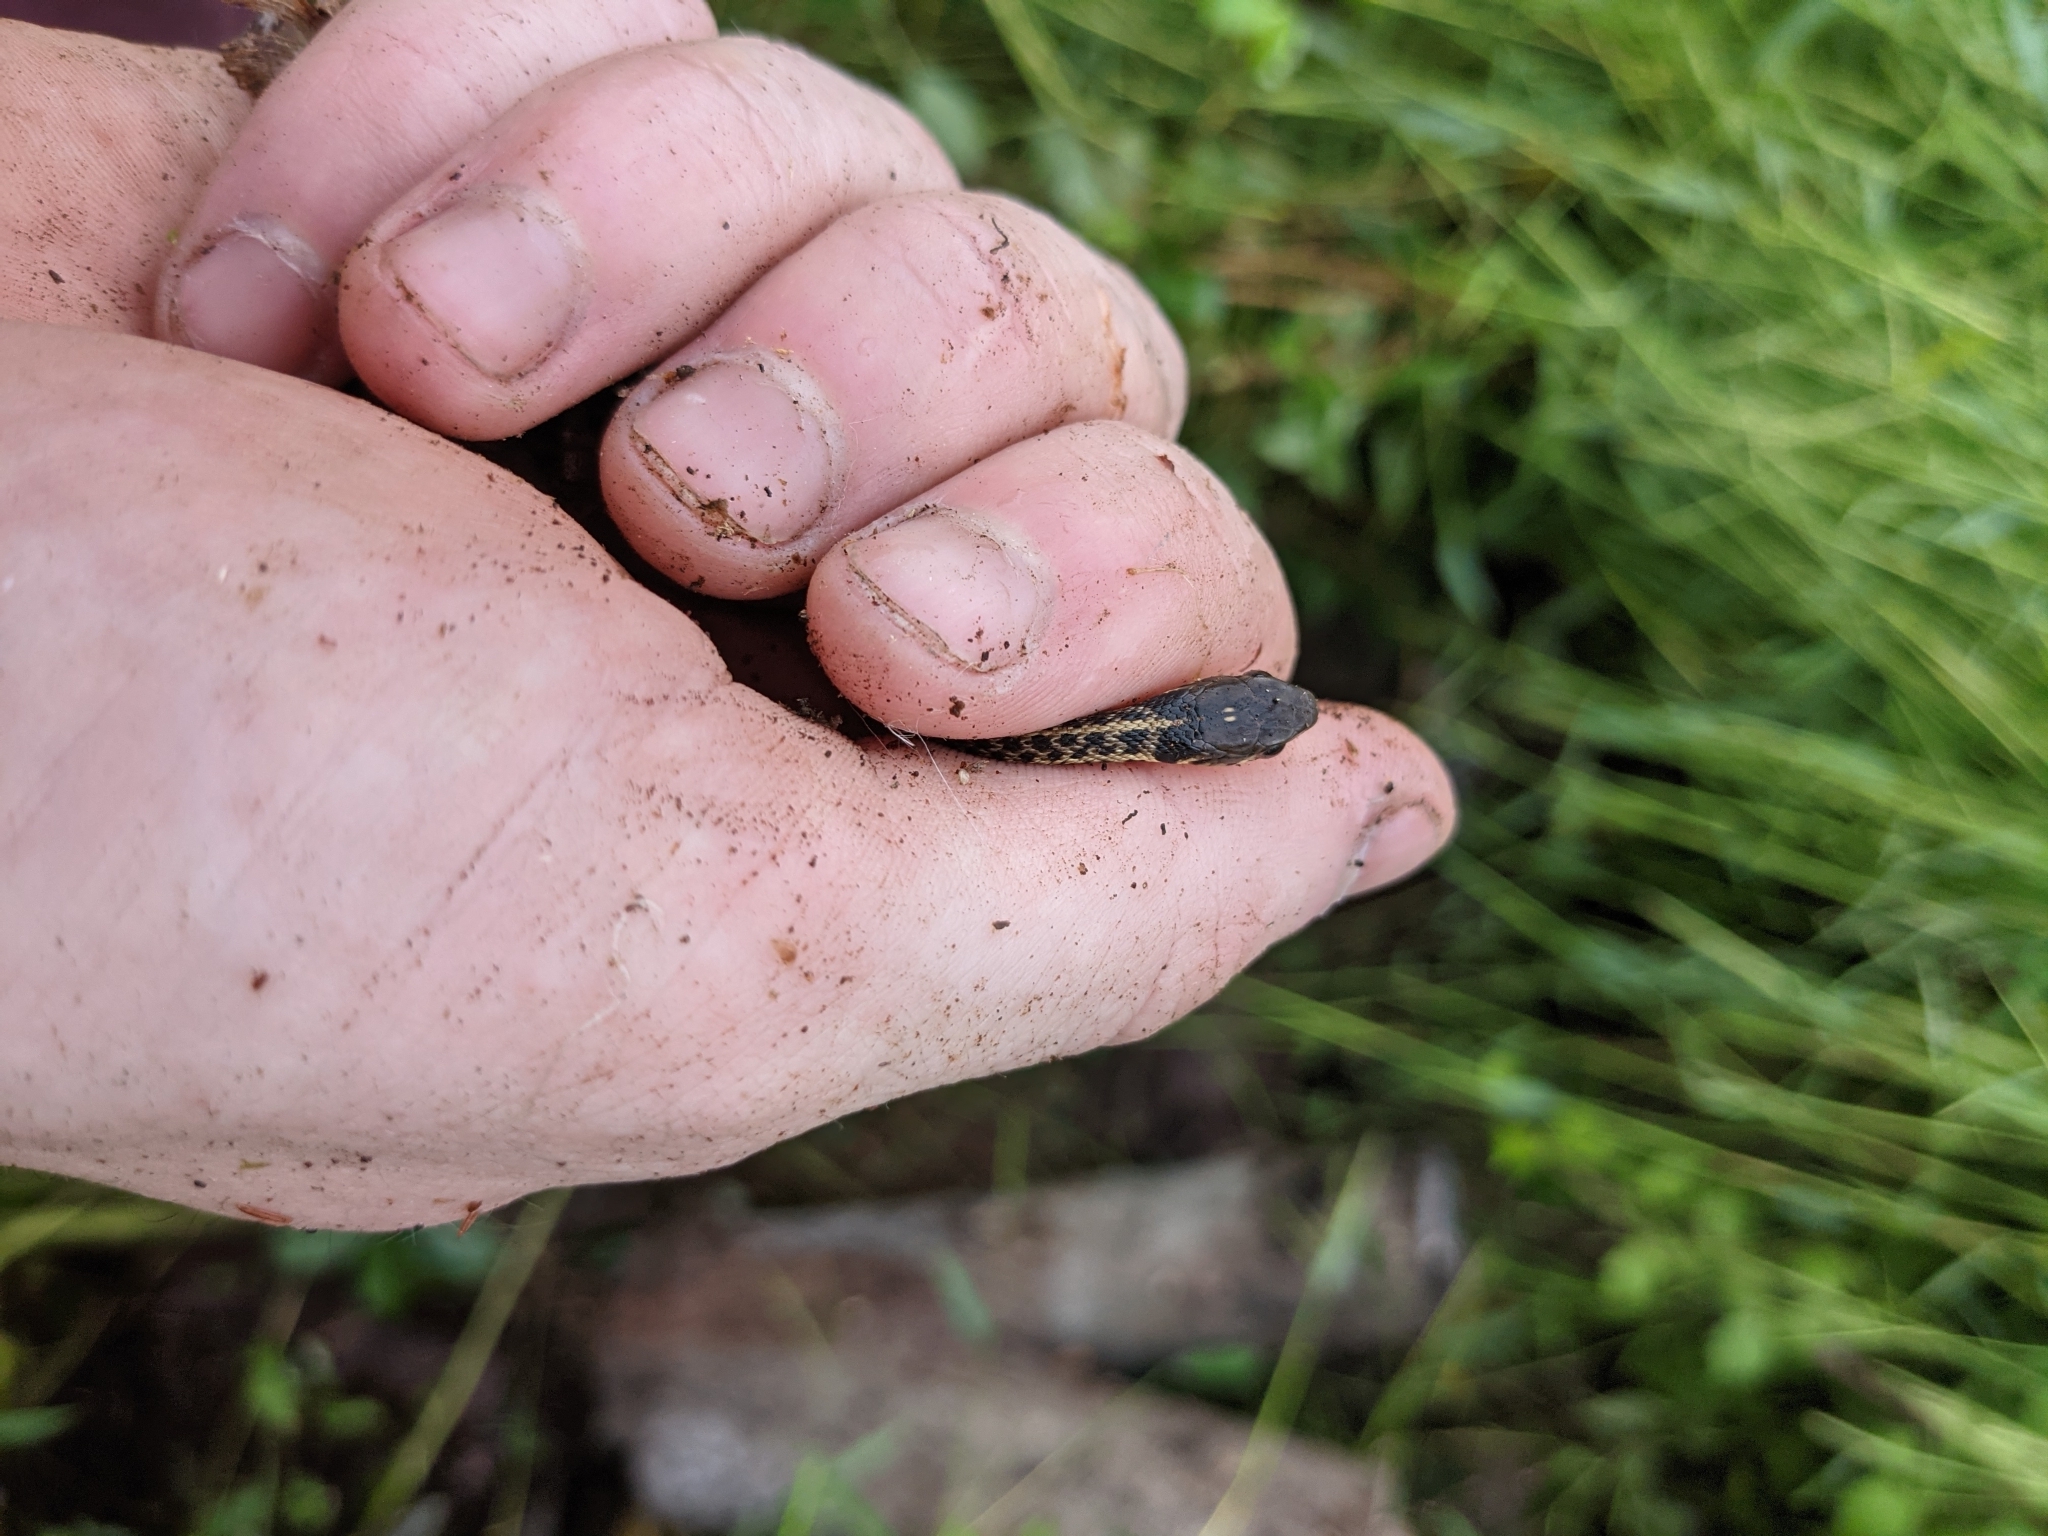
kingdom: Animalia
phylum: Chordata
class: Squamata
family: Colubridae
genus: Thamnophis
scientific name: Thamnophis sirtalis
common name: Common garter snake
